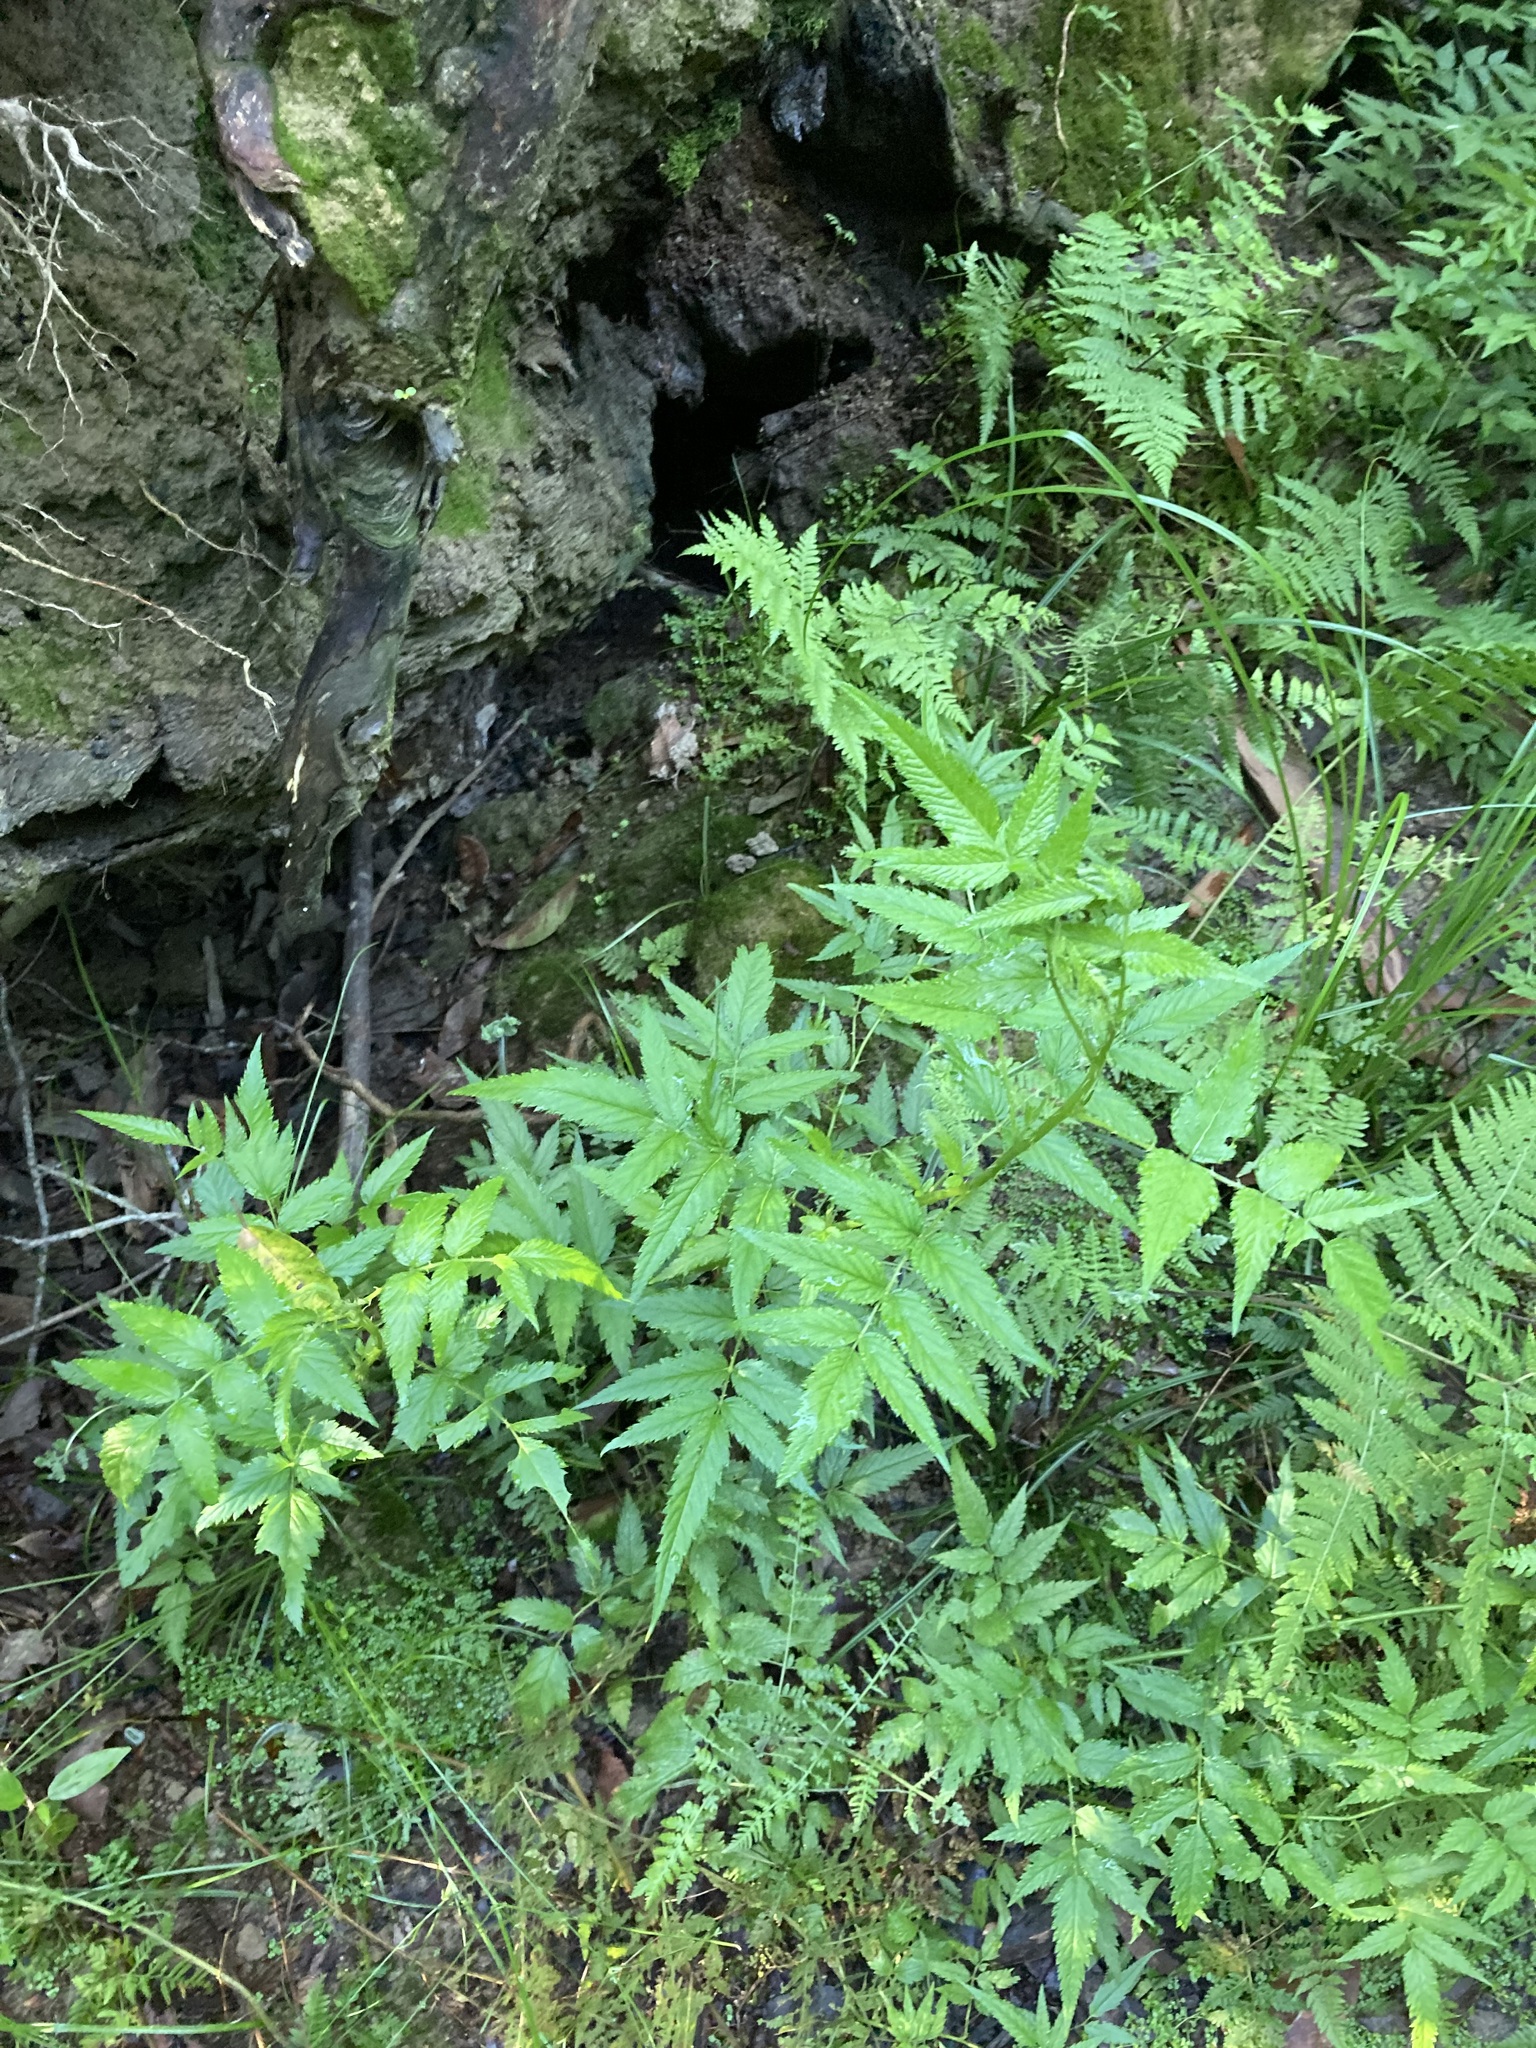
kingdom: Plantae
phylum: Tracheophyta
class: Magnoliopsida
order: Rosales
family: Rosaceae
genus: Rubus
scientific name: Rubus rosifolius
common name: Roseleaf raspberry
